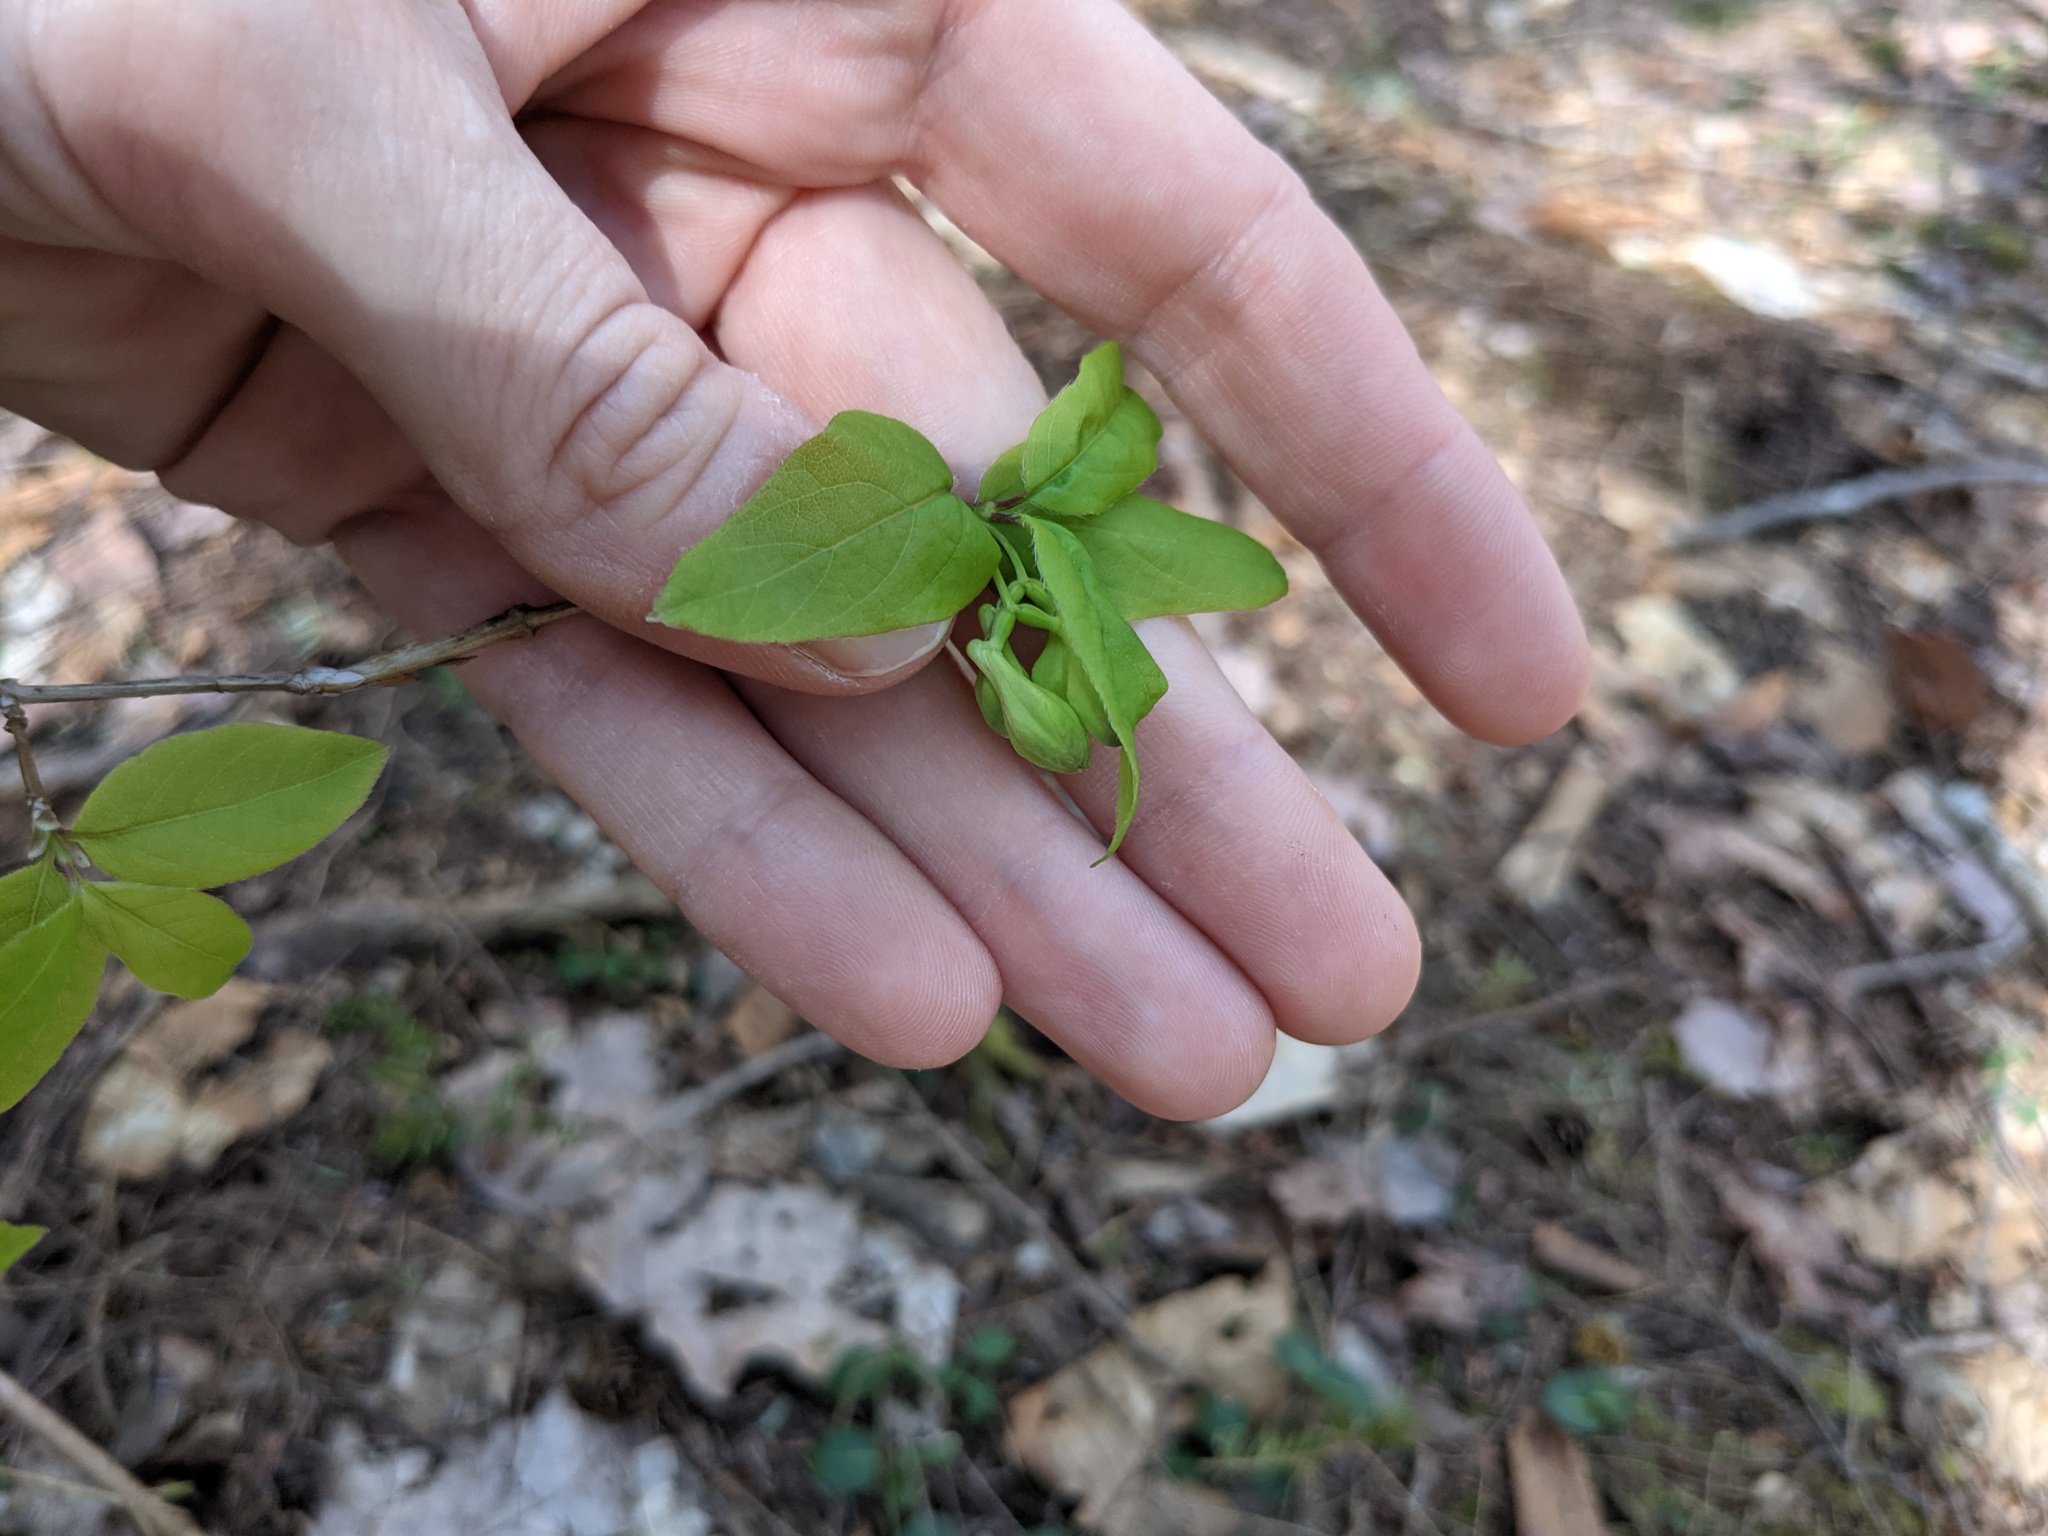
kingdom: Plantae
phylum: Tracheophyta
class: Magnoliopsida
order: Dipsacales
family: Caprifoliaceae
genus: Lonicera
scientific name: Lonicera canadensis
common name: American fly-honeysuckle
